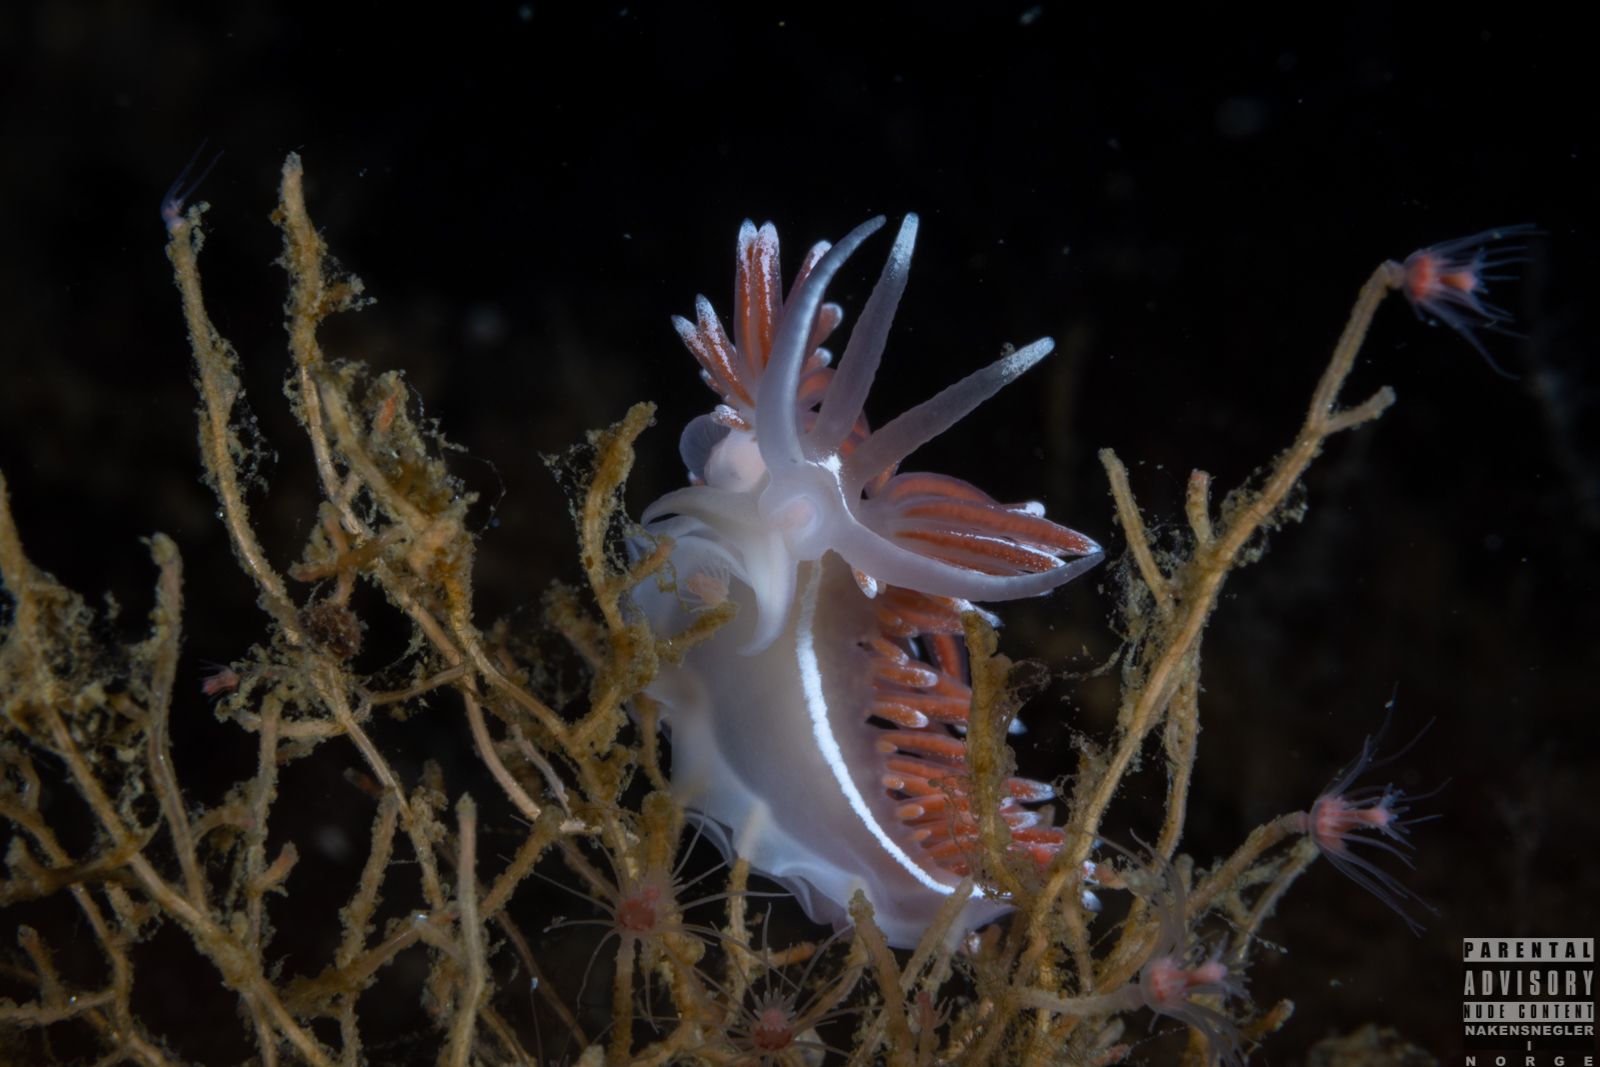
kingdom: Animalia
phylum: Mollusca
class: Gastropoda
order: Nudibranchia
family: Coryphellidae
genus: Coryphella
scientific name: Coryphella lineata
